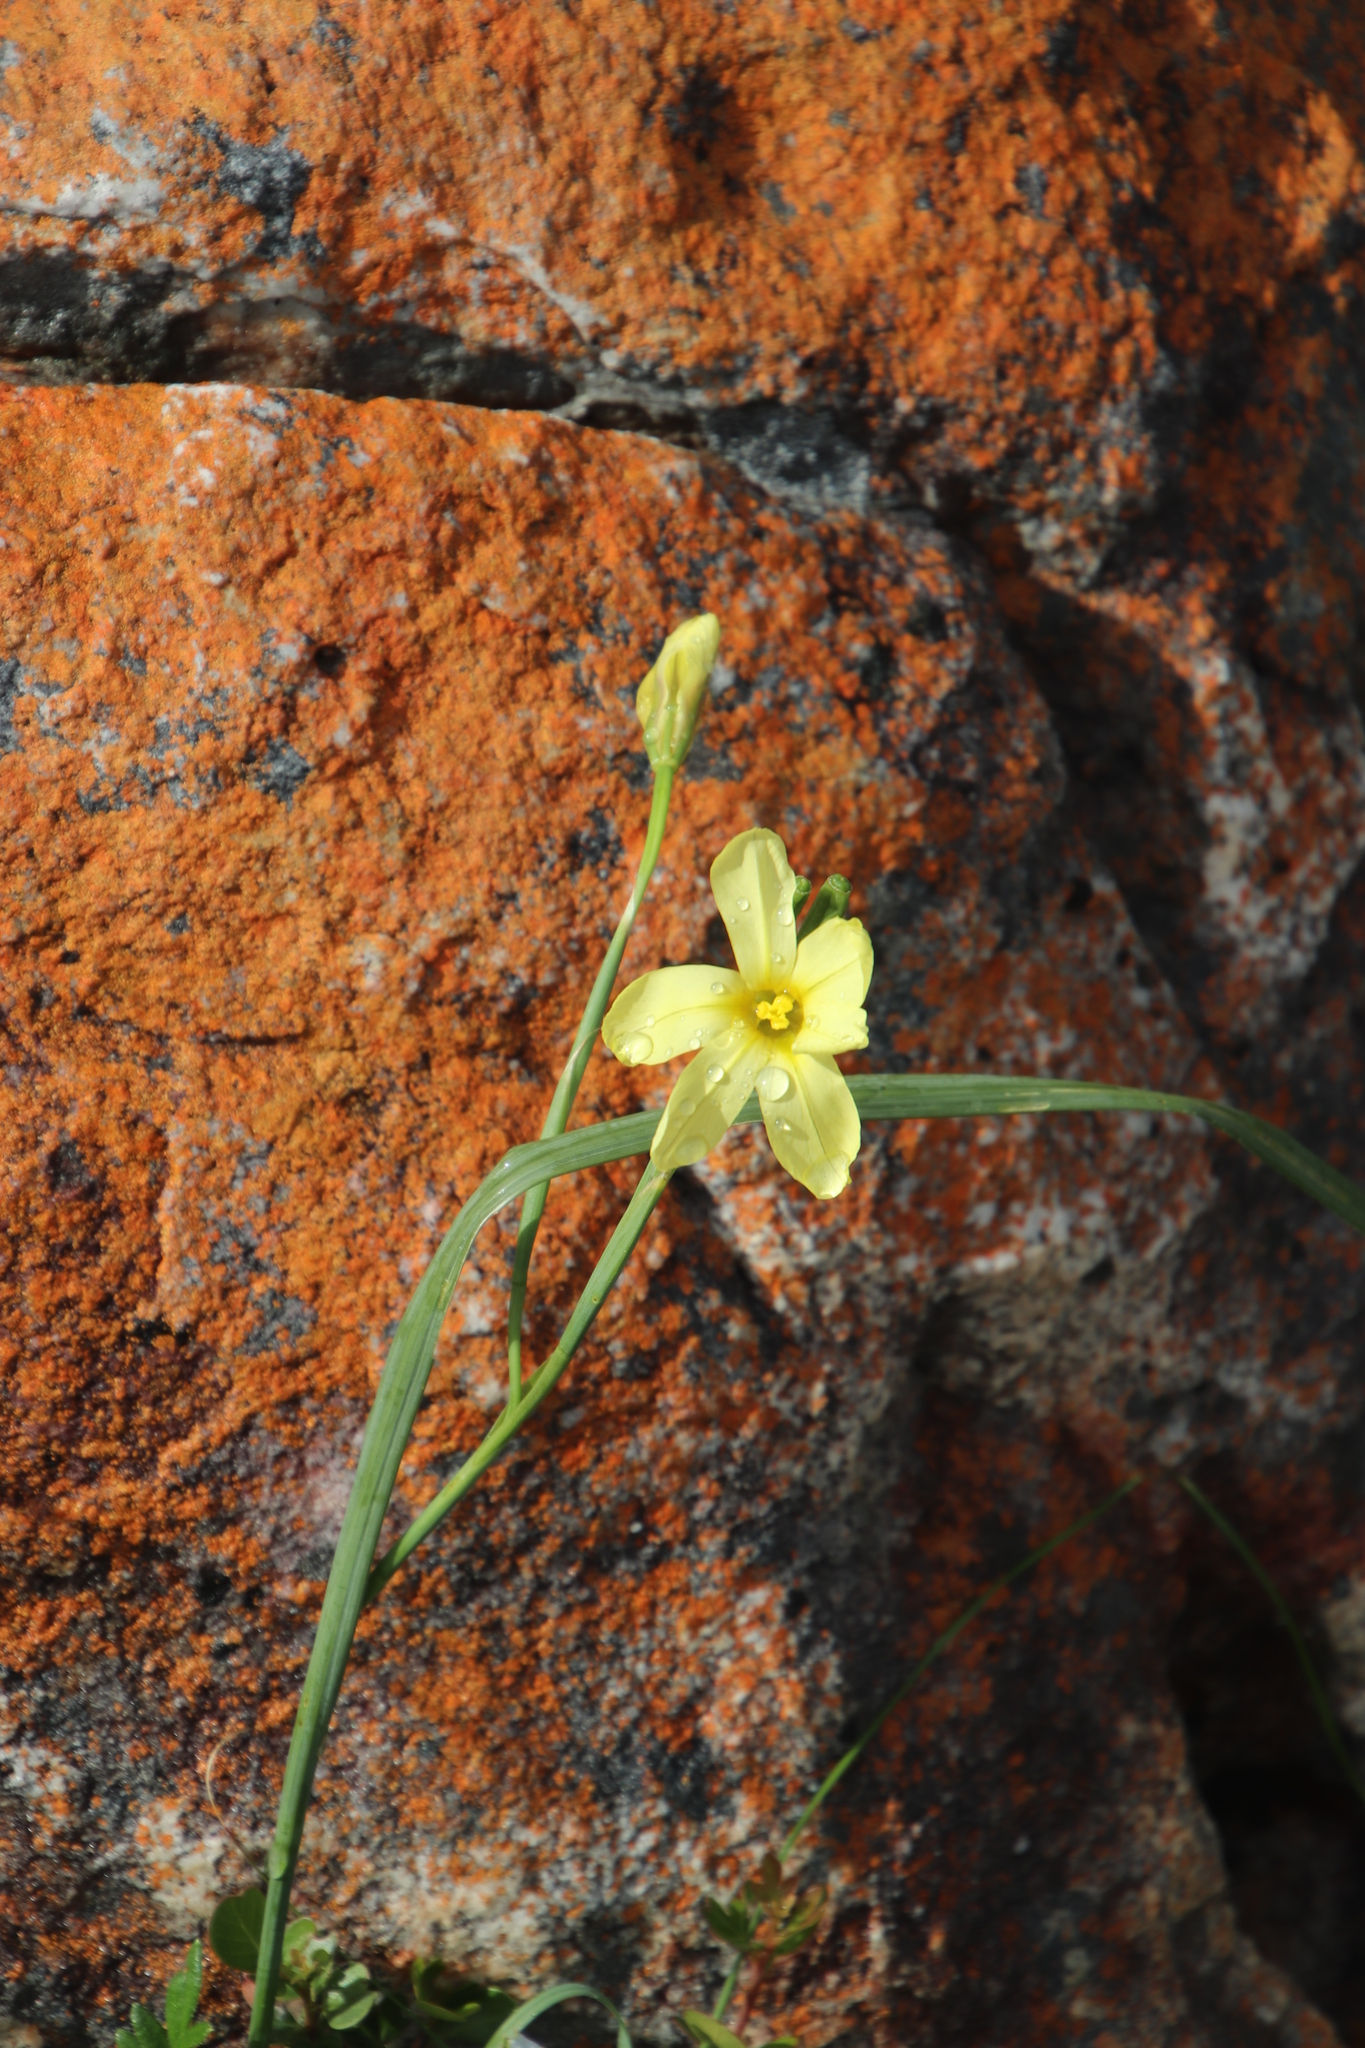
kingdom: Plantae
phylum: Tracheophyta
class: Liliopsida
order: Asparagales
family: Iridaceae
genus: Moraea
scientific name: Moraea collina
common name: Cape-tulip
